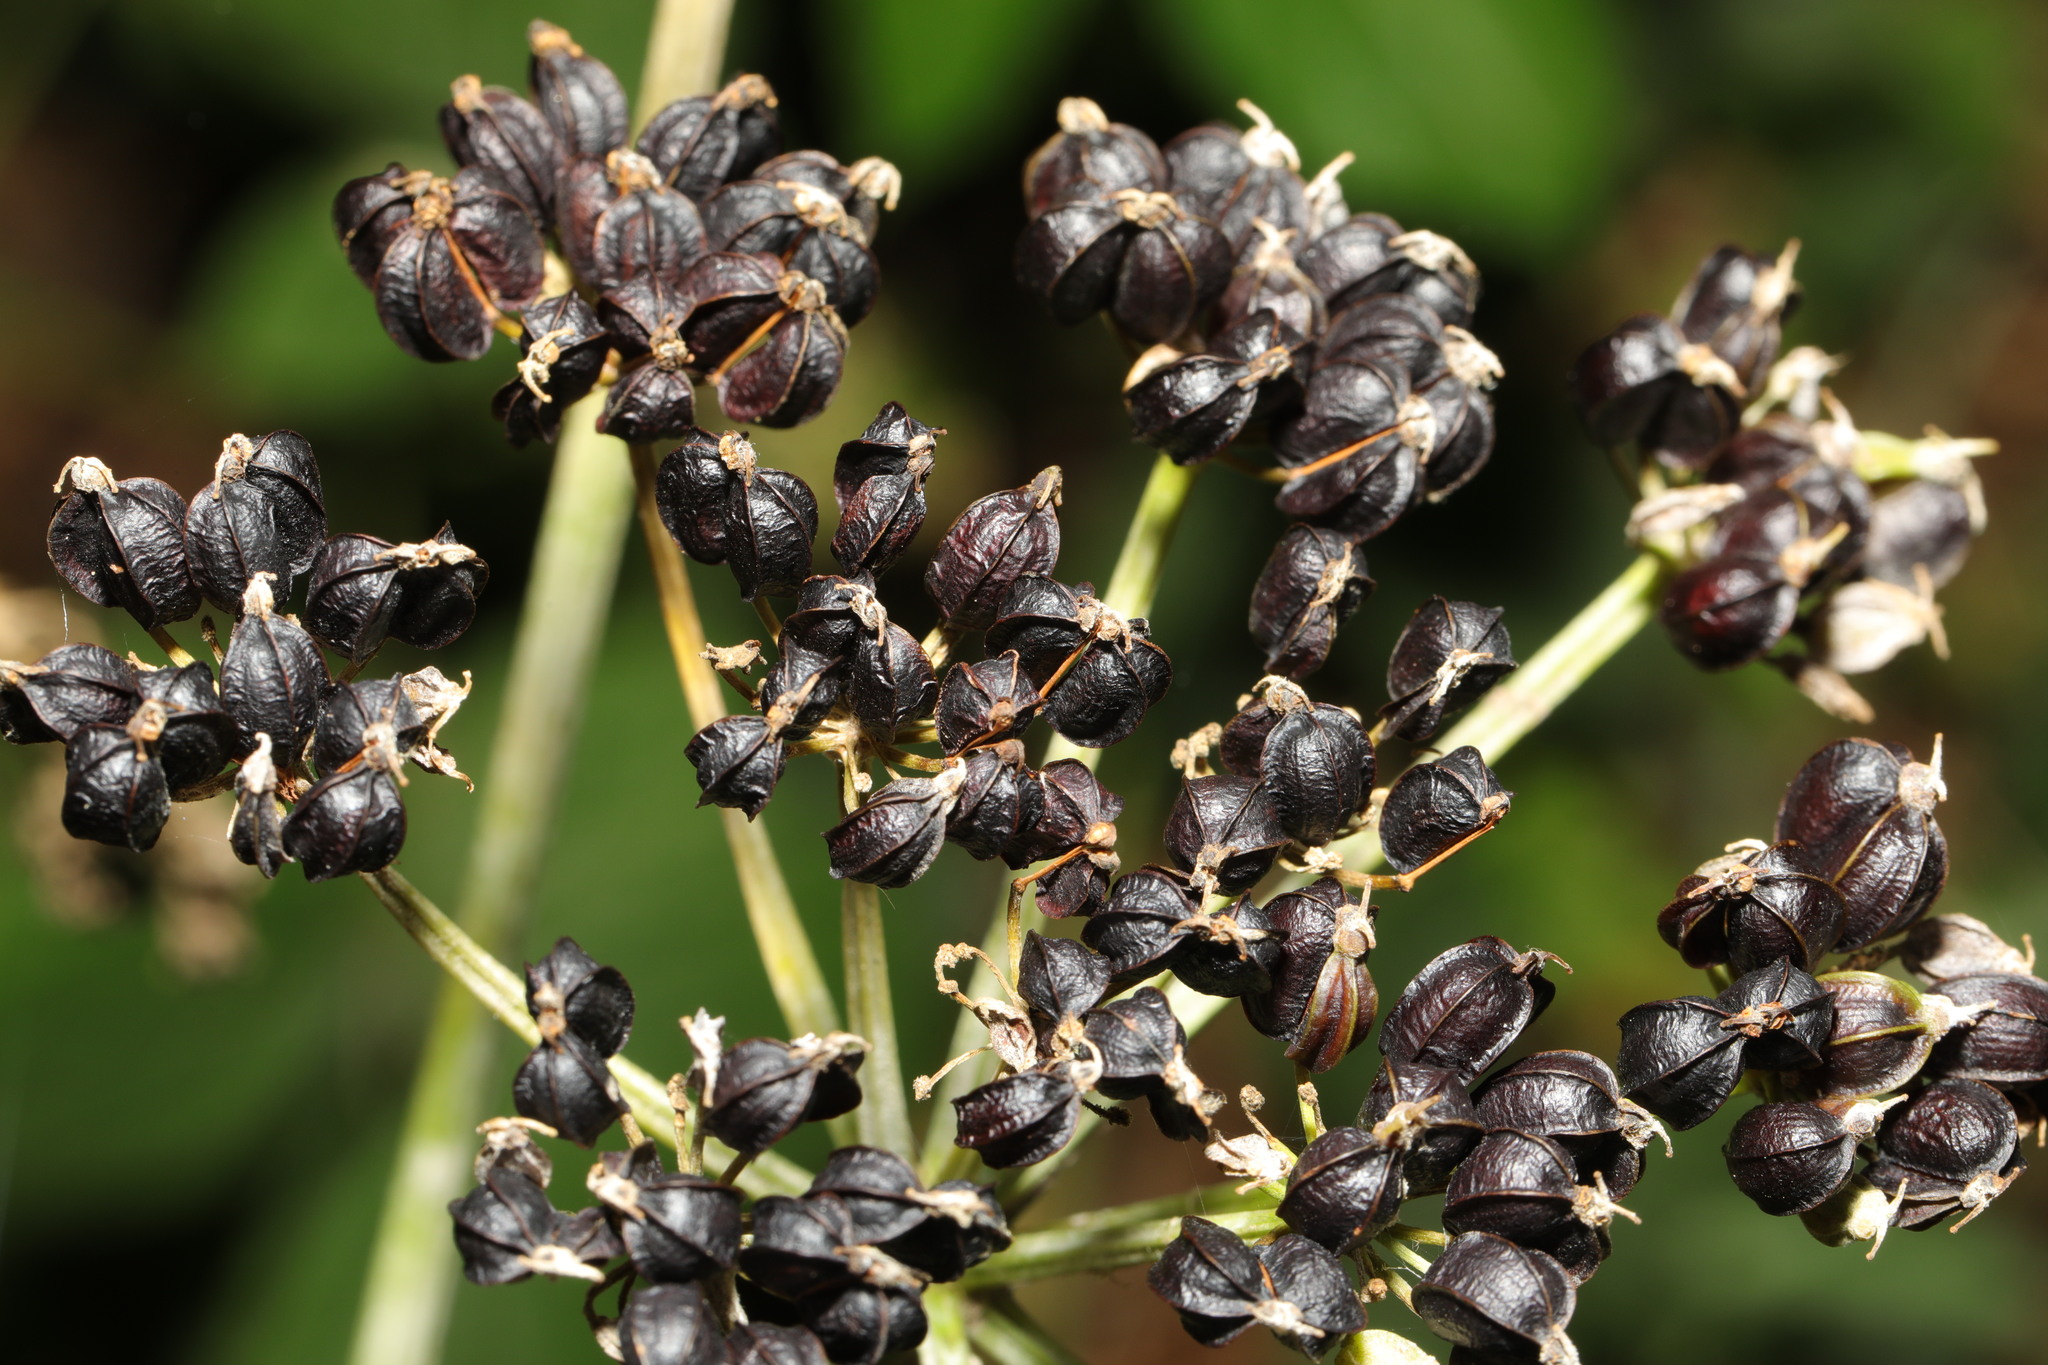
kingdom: Plantae
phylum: Tracheophyta
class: Magnoliopsida
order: Apiales
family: Apiaceae
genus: Smyrnium
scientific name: Smyrnium olusatrum
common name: Alexanders
